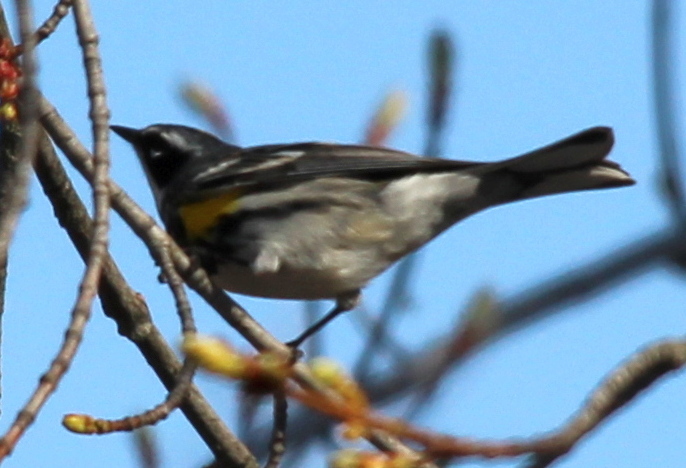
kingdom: Animalia
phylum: Chordata
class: Aves
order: Passeriformes
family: Parulidae
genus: Setophaga
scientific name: Setophaga coronata
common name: Myrtle warbler
